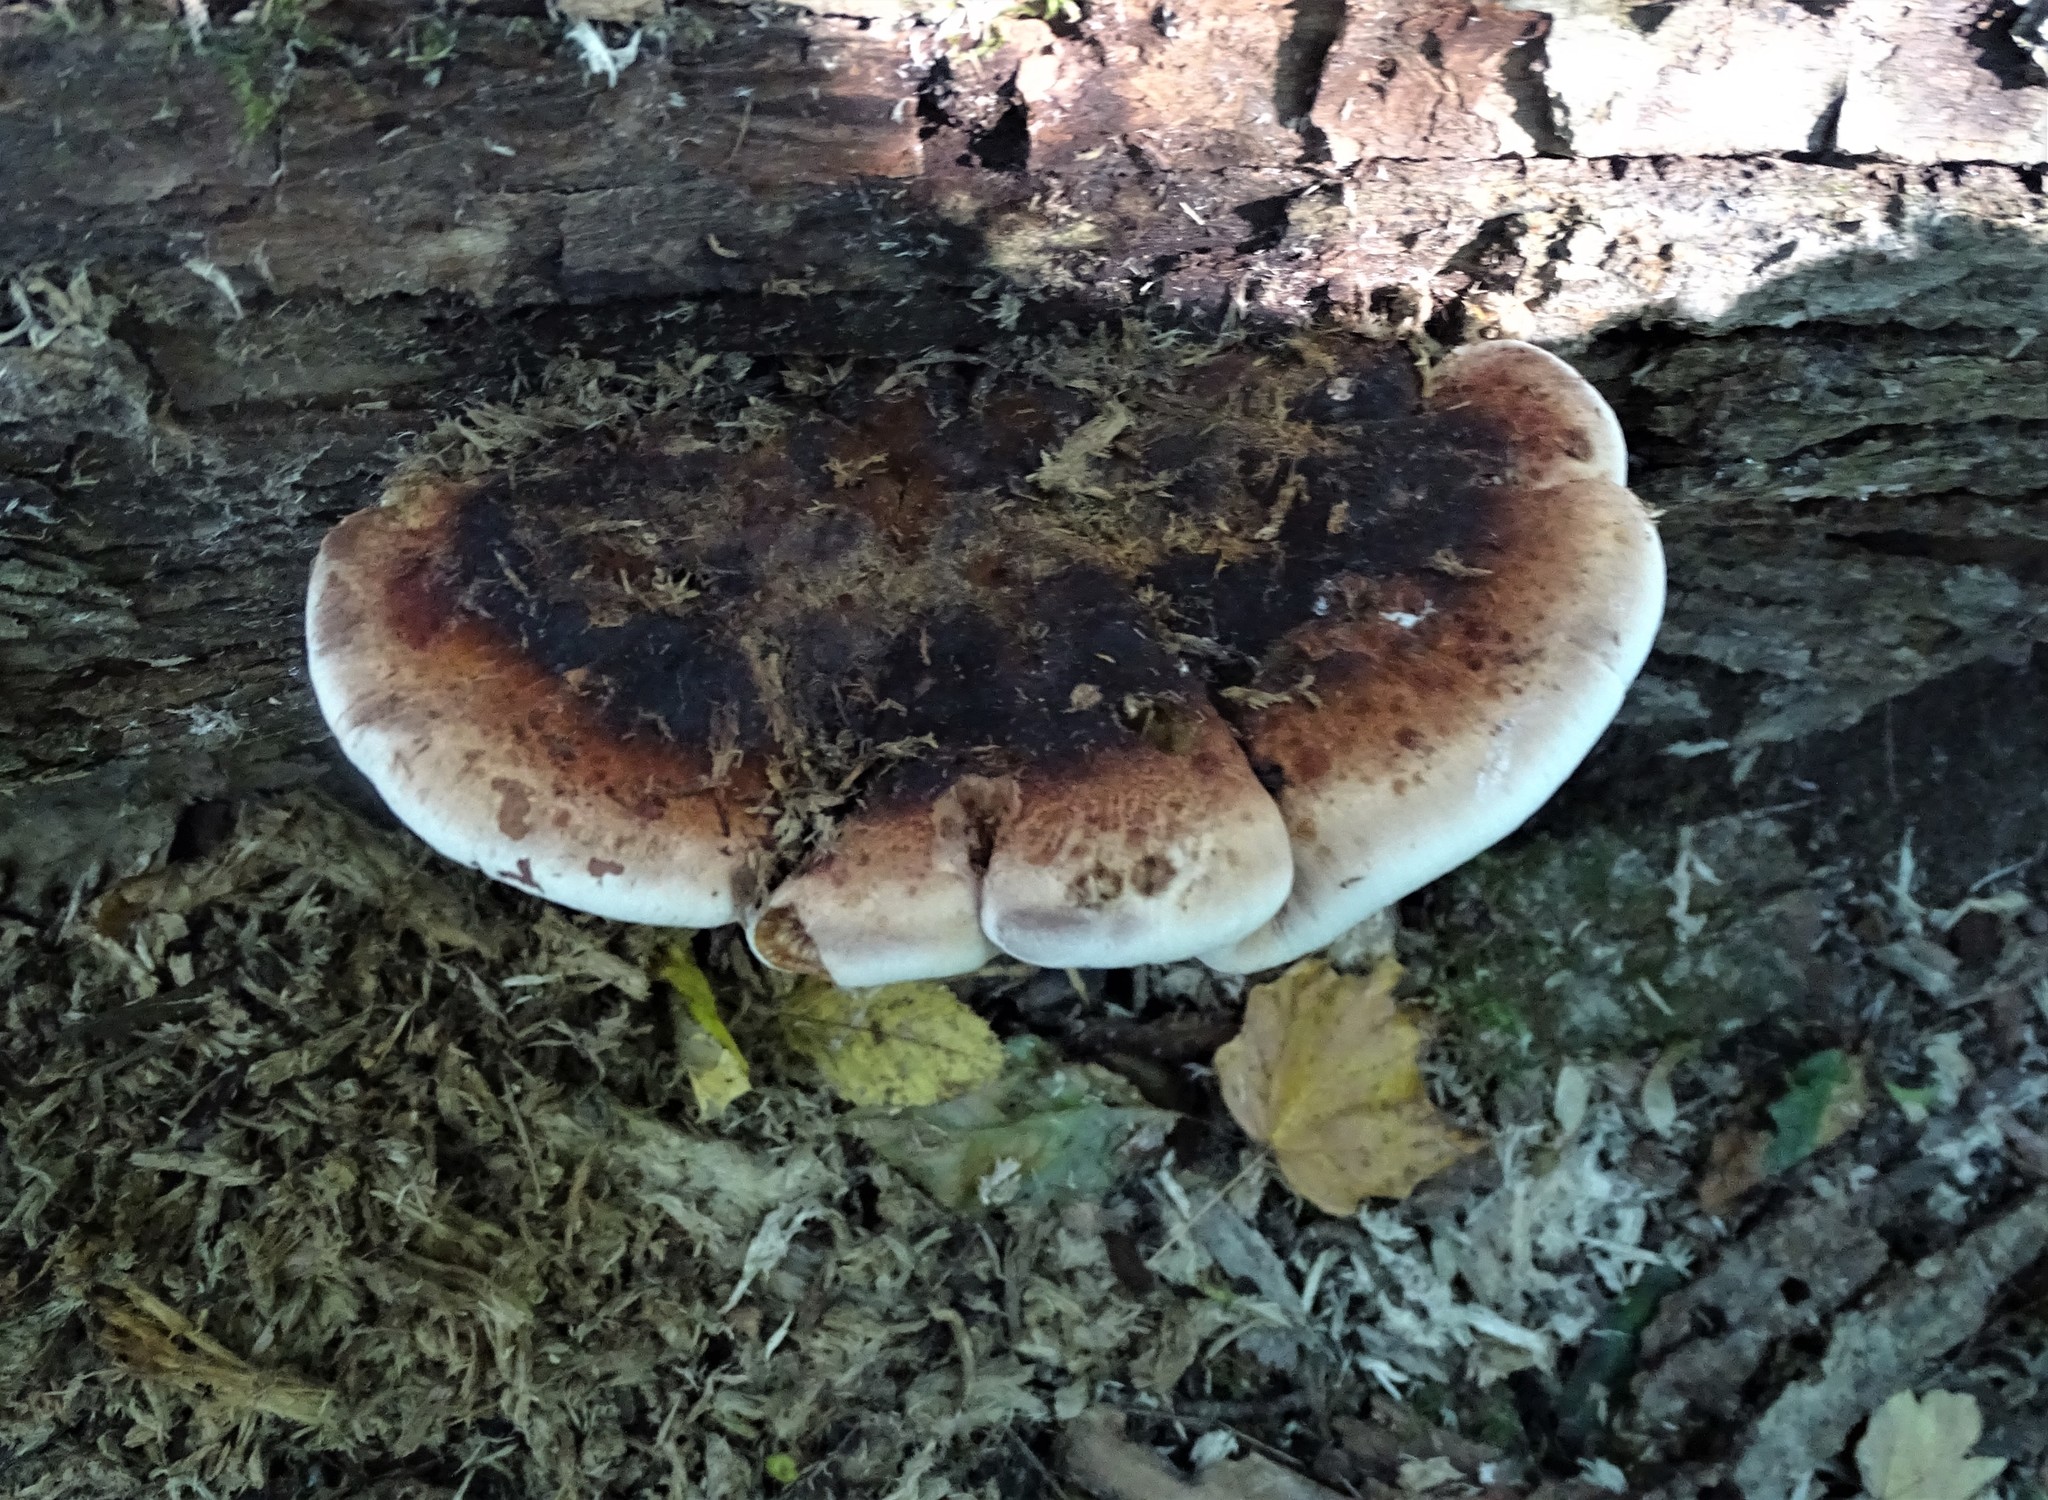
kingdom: Fungi
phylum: Basidiomycota
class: Agaricomycetes
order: Polyporales
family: Ischnodermataceae
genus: Ischnoderma
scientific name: Ischnoderma resinosum
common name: Resinous polypore
